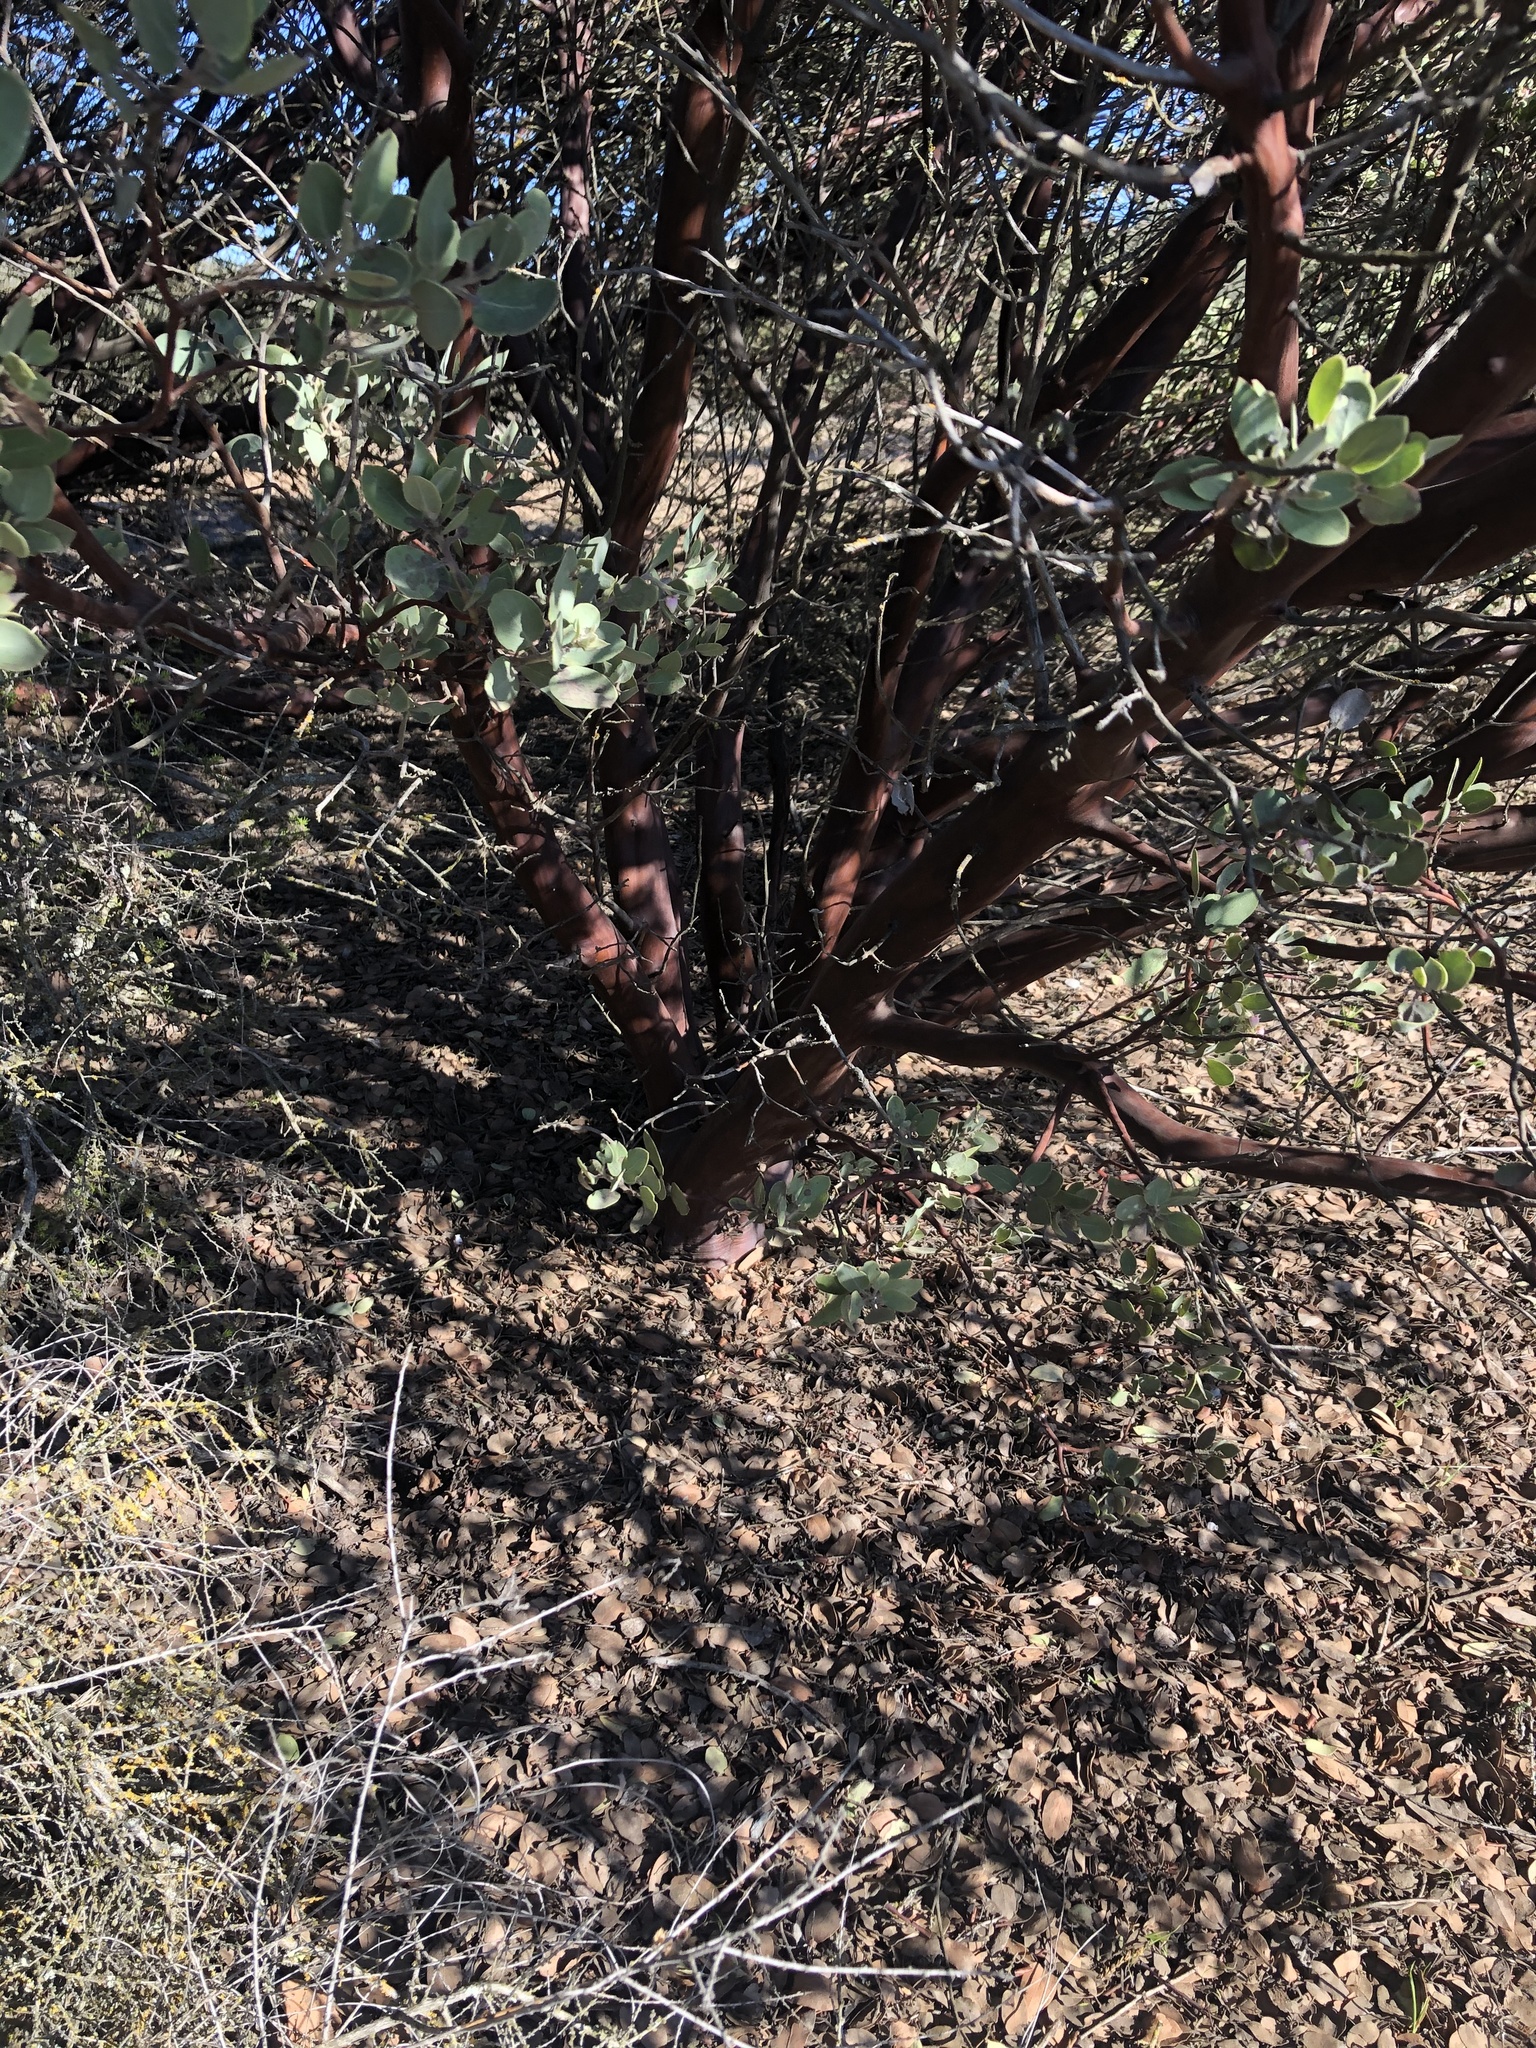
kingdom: Plantae
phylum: Tracheophyta
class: Magnoliopsida
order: Ericales
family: Ericaceae
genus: Arctostaphylos
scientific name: Arctostaphylos obispoensis
